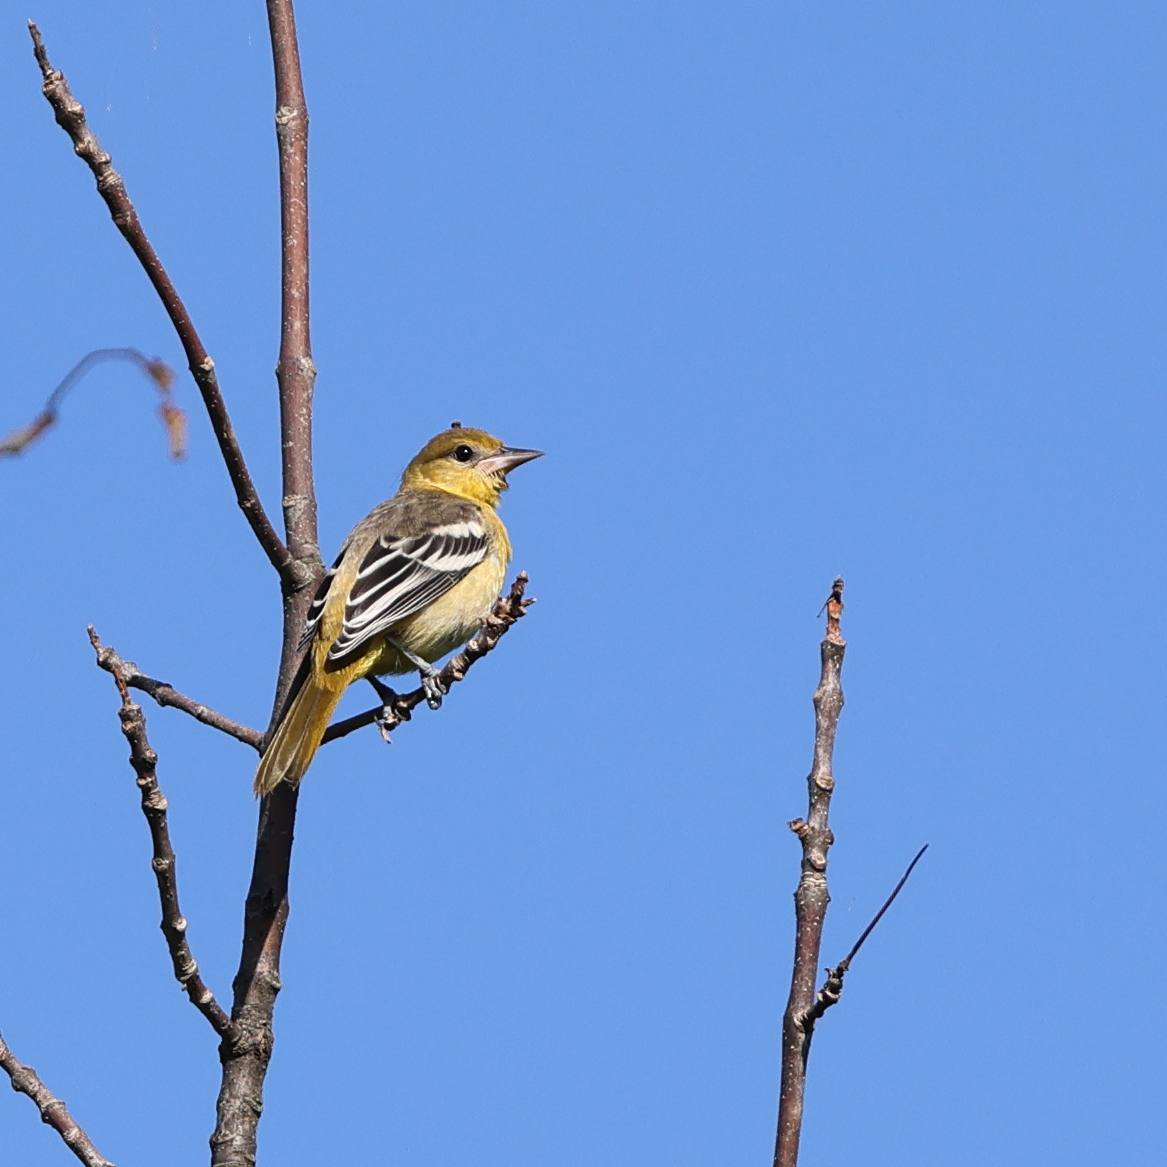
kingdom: Animalia
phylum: Chordata
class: Aves
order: Passeriformes
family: Icteridae
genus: Icterus
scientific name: Icterus galbula
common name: Baltimore oriole
